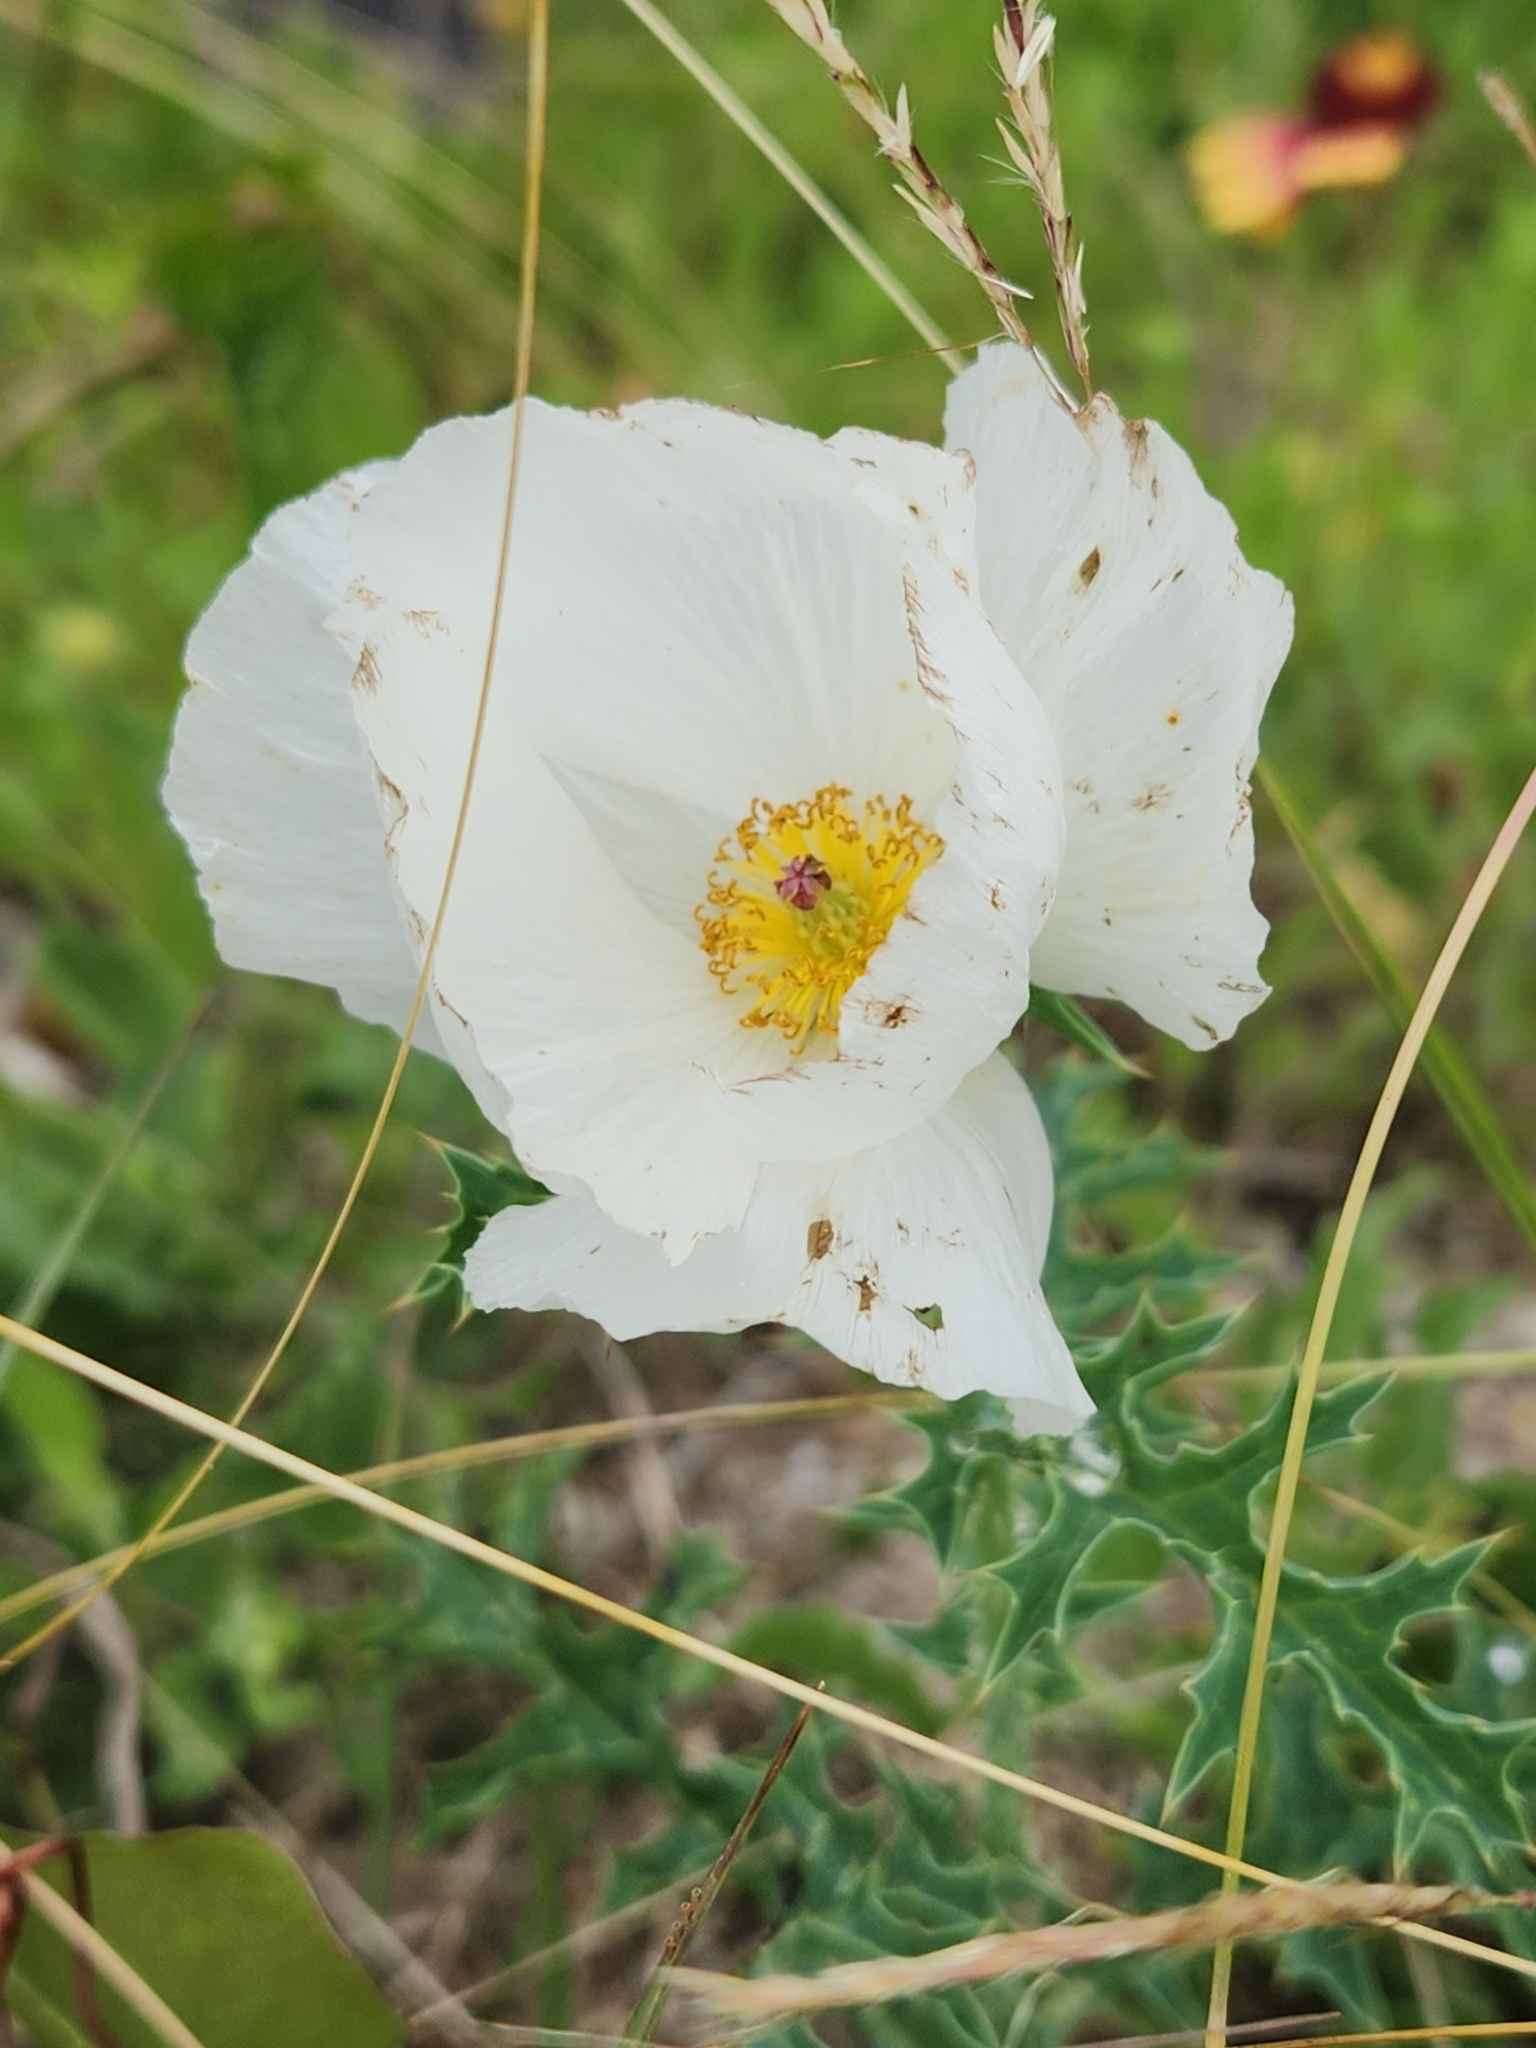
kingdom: Plantae
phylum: Tracheophyta
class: Magnoliopsida
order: Ranunculales
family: Papaveraceae
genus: Argemone
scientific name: Argemone albiflora
